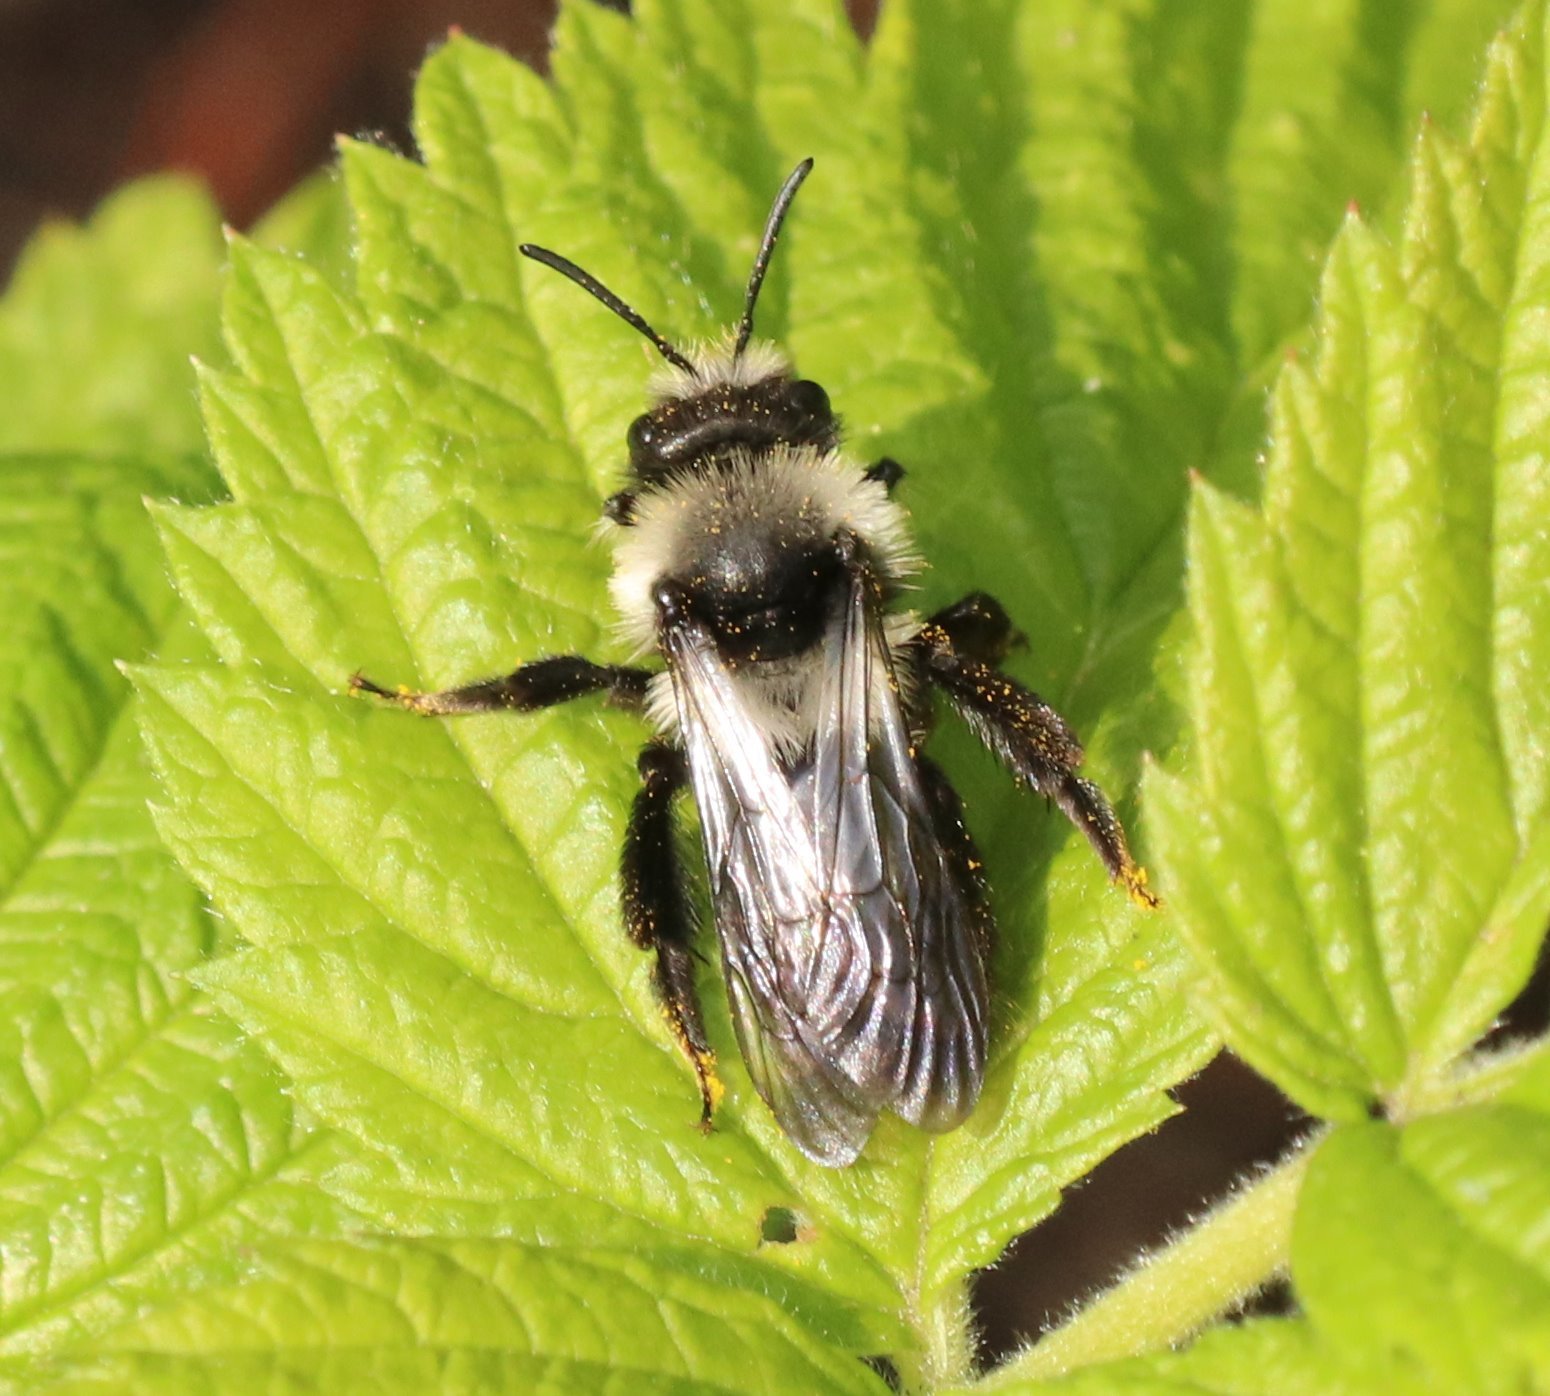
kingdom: Animalia
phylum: Arthropoda
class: Insecta
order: Hymenoptera
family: Andrenidae
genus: Andrena
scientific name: Andrena cineraria
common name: Ashy mining bee
